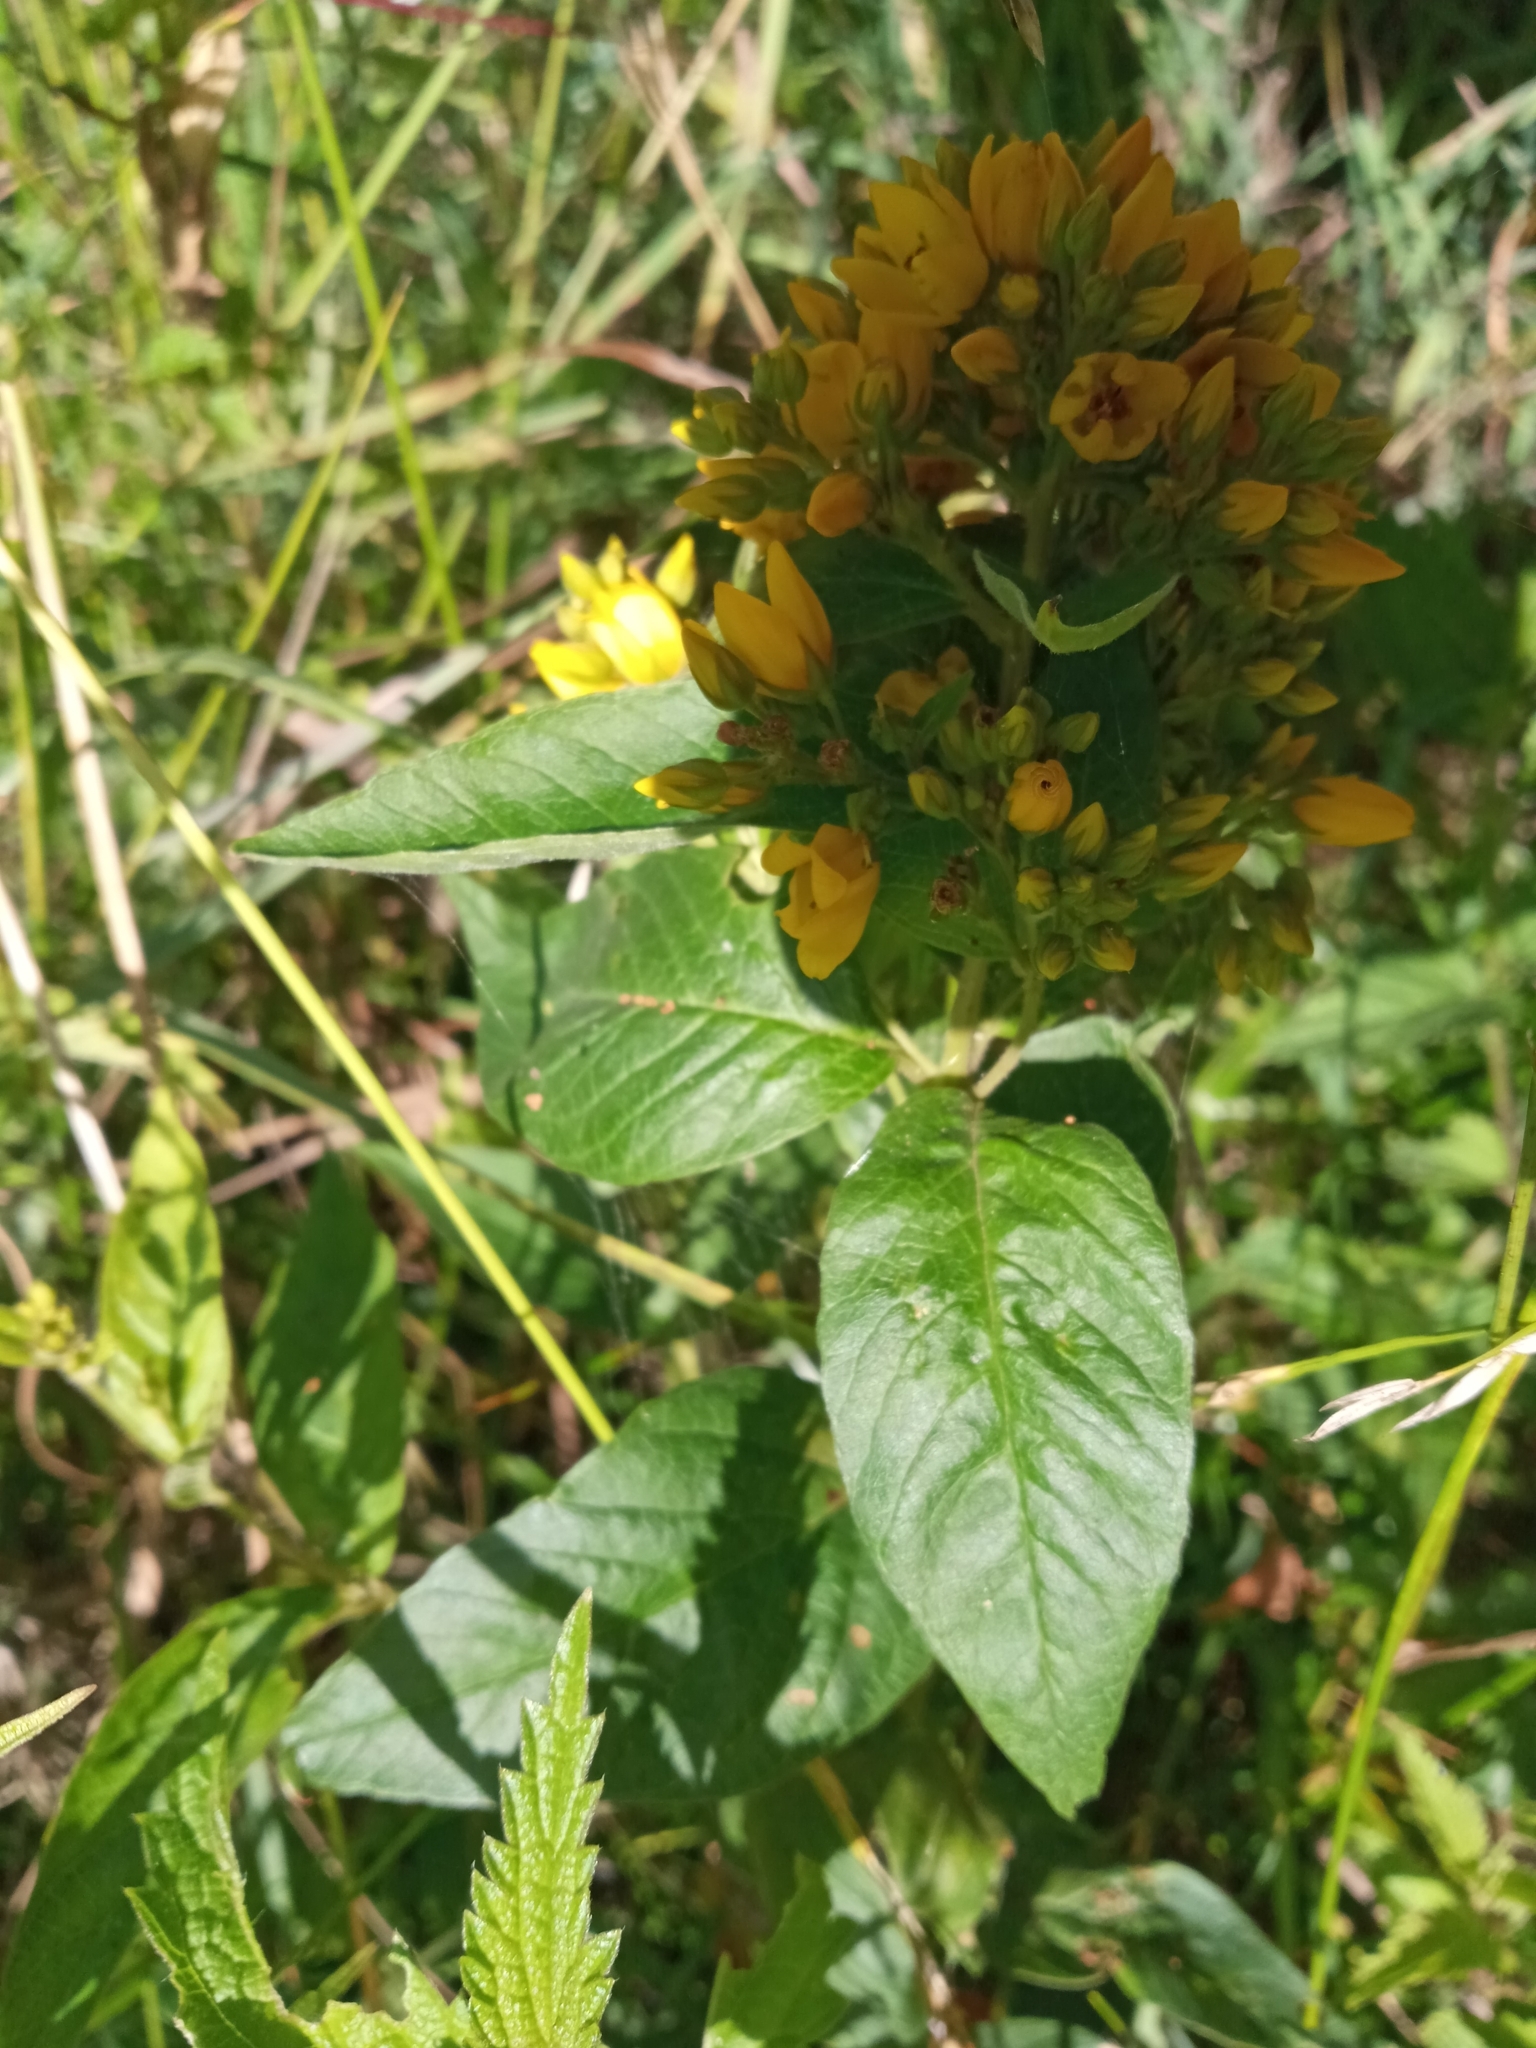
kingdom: Plantae
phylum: Tracheophyta
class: Magnoliopsida
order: Ericales
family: Primulaceae
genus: Lysimachia
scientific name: Lysimachia vulgaris
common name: Yellow loosestrife
